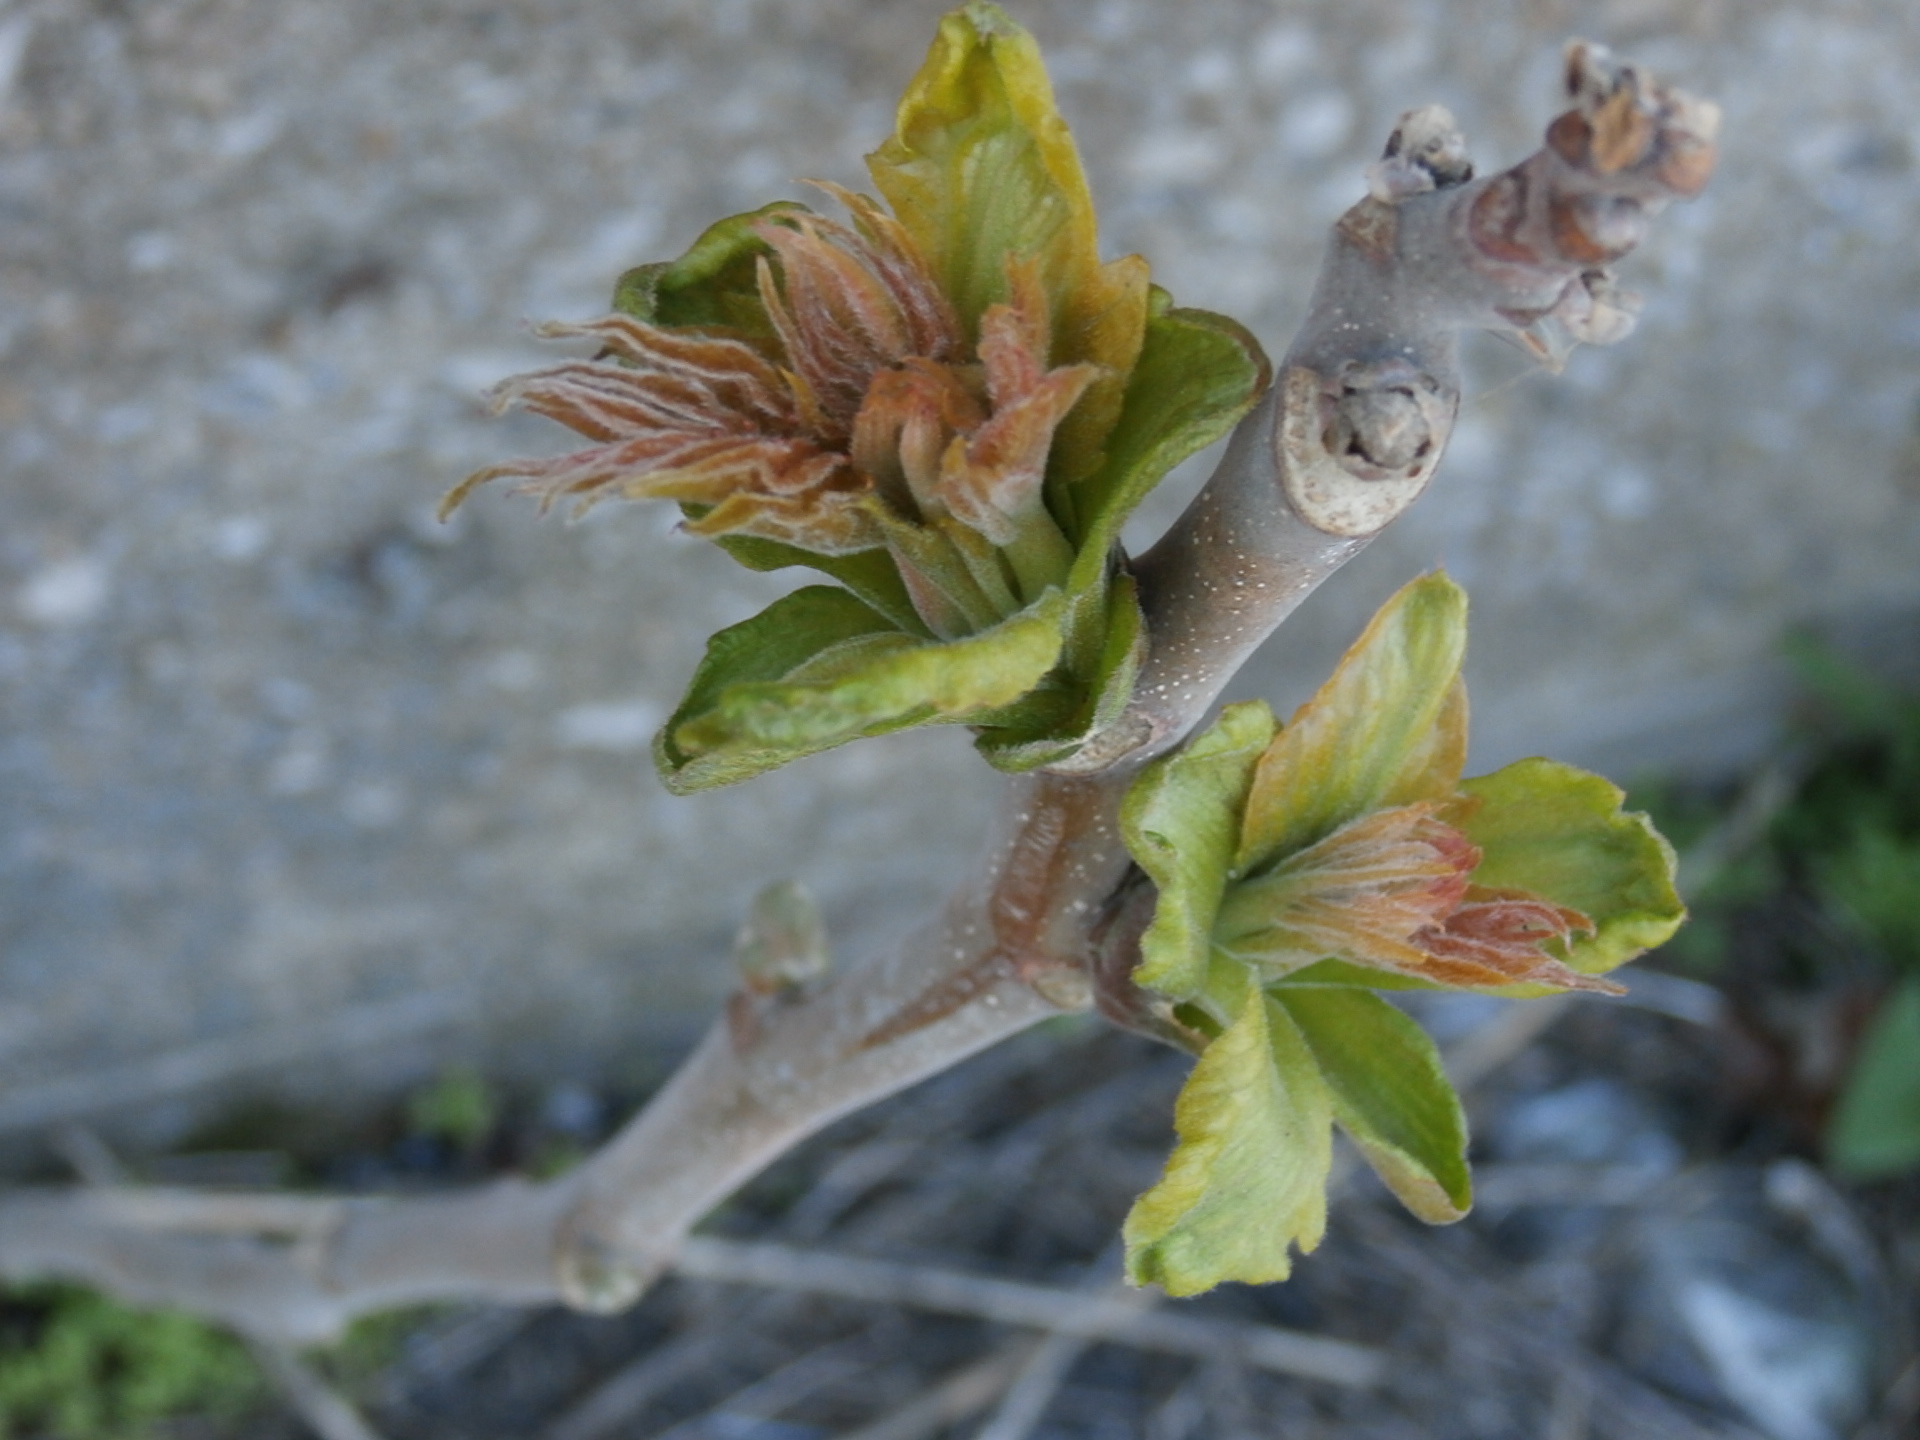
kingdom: Plantae
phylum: Tracheophyta
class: Magnoliopsida
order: Sapindales
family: Simaroubaceae
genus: Ailanthus
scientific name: Ailanthus altissima
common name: Tree-of-heaven
